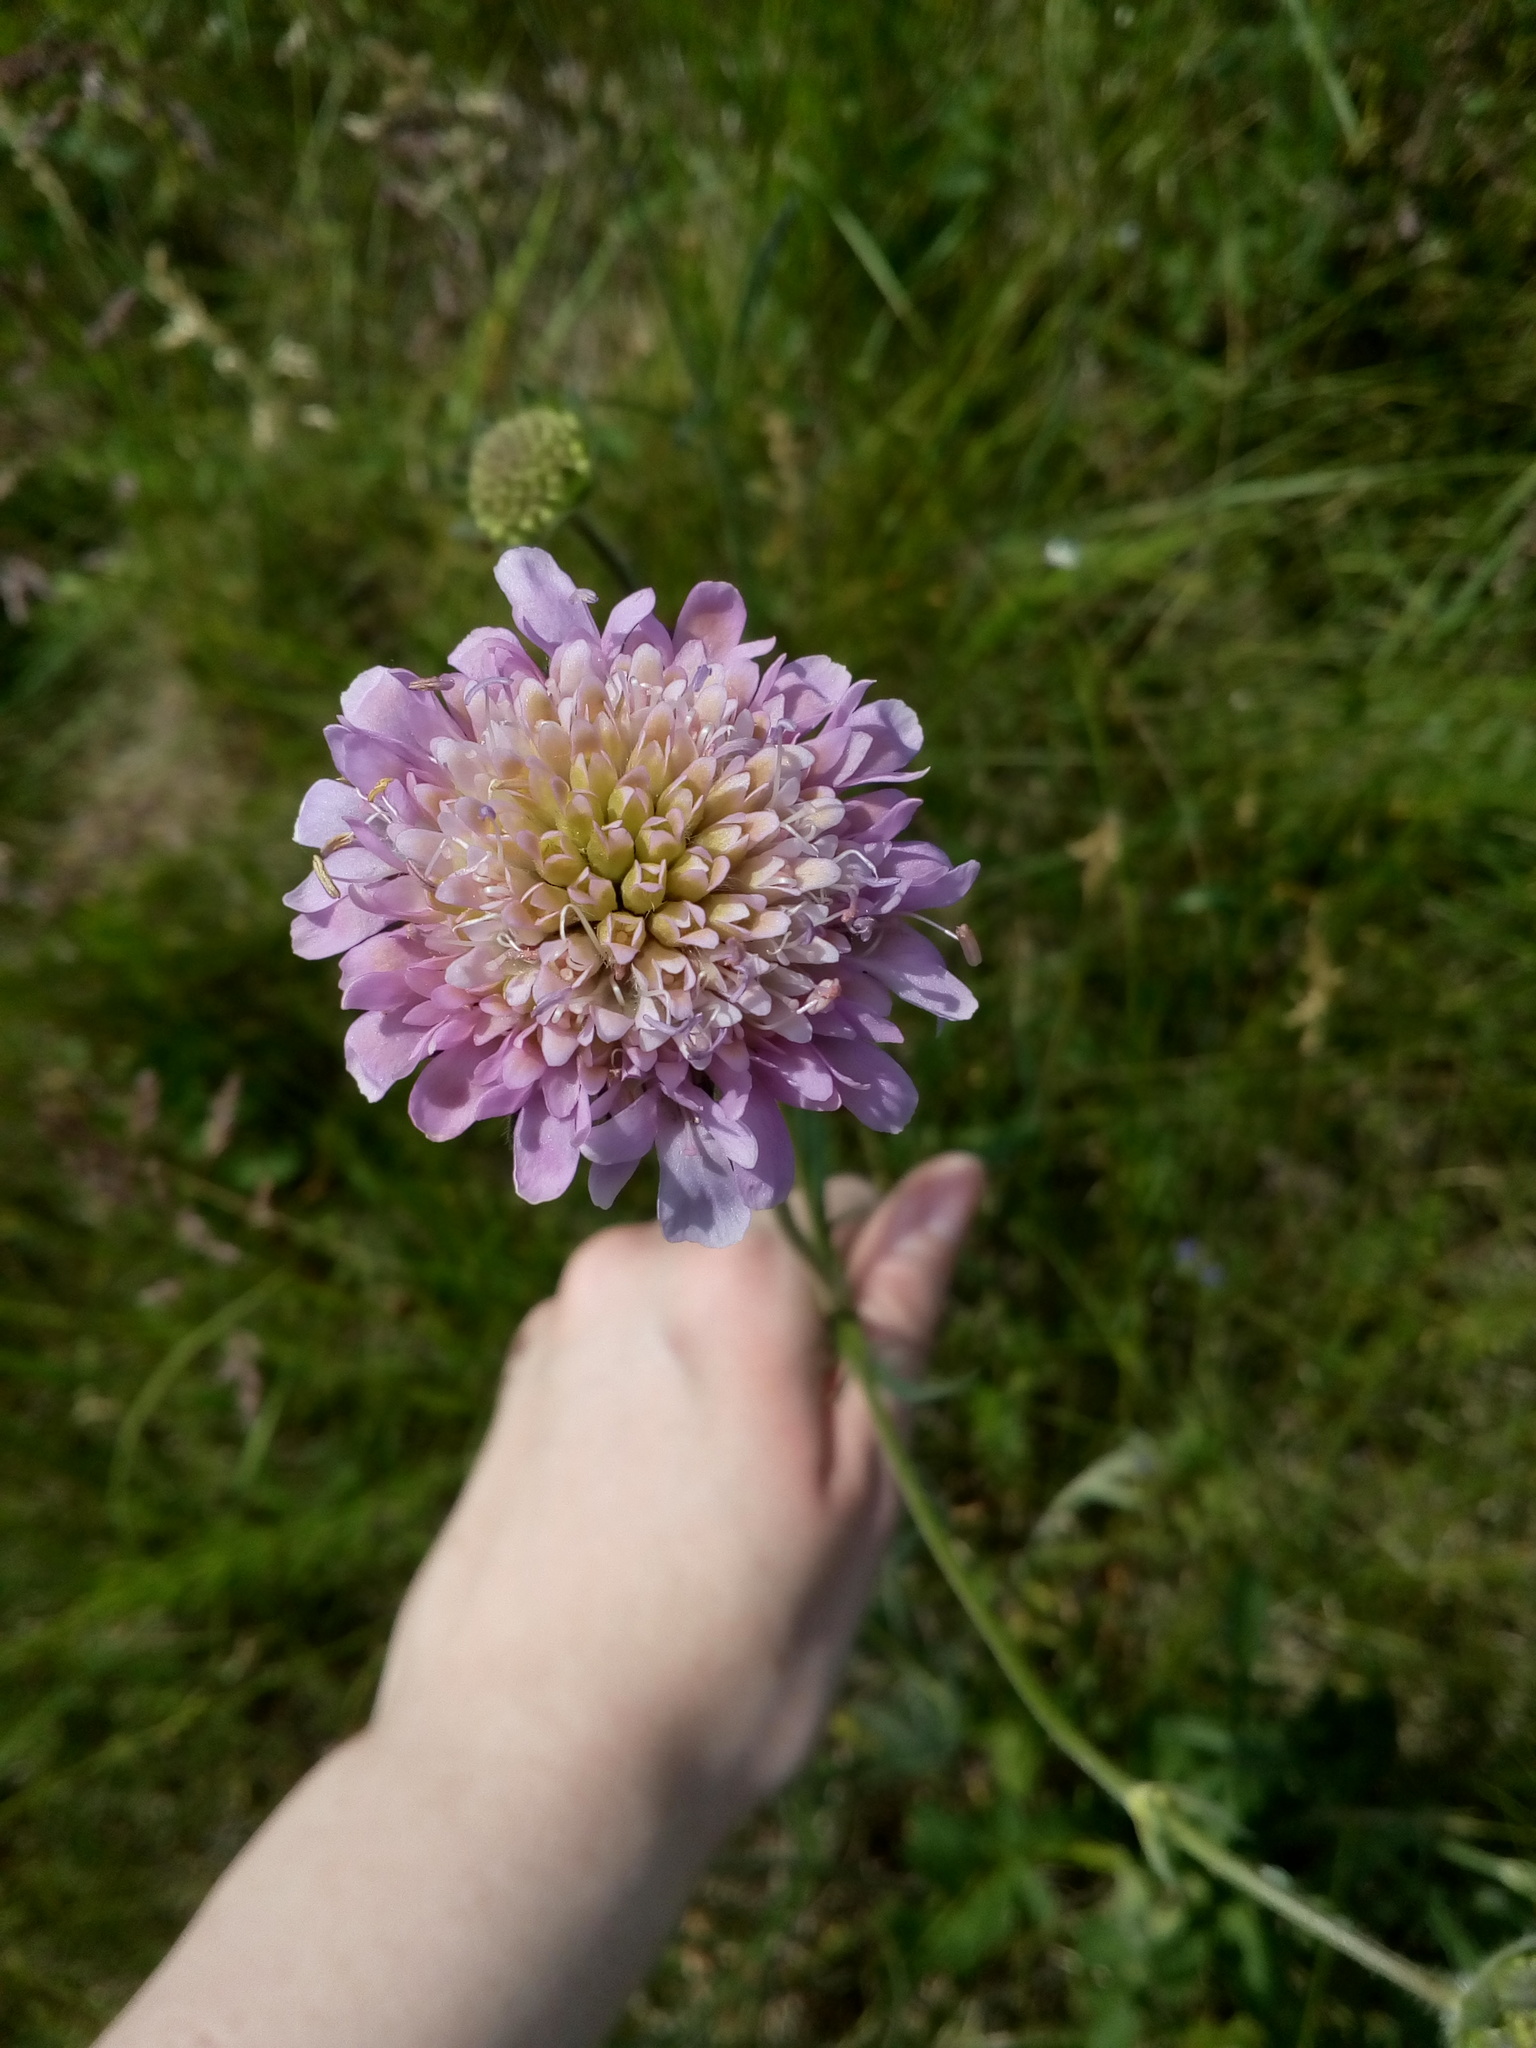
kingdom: Plantae
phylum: Tracheophyta
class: Magnoliopsida
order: Dipsacales
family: Caprifoliaceae
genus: Knautia
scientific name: Knautia arvensis
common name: Field scabiosa
